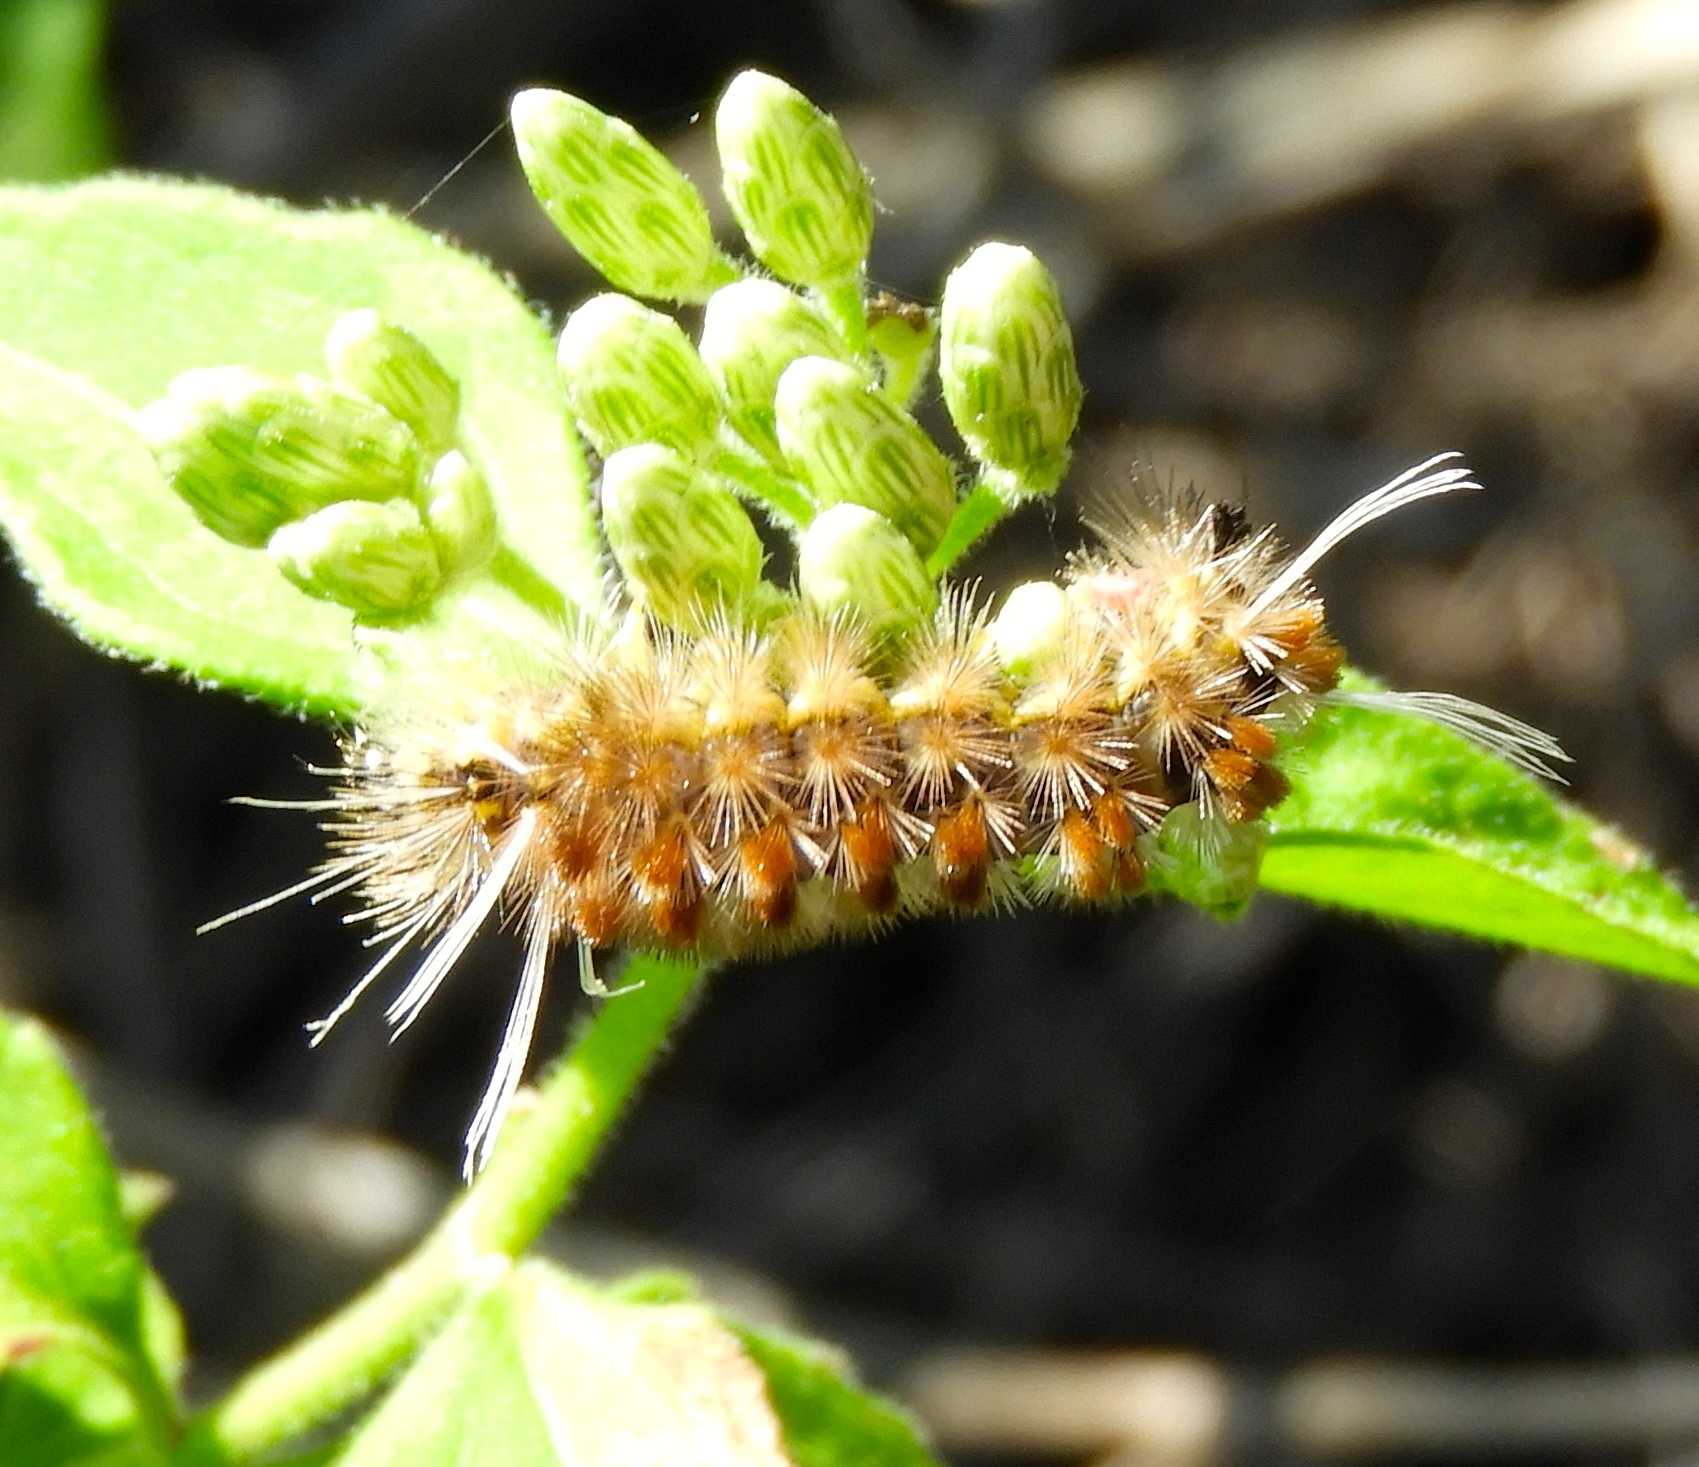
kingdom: Animalia
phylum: Arthropoda
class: Insecta
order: Lepidoptera
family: Erebidae
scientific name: Erebidae
